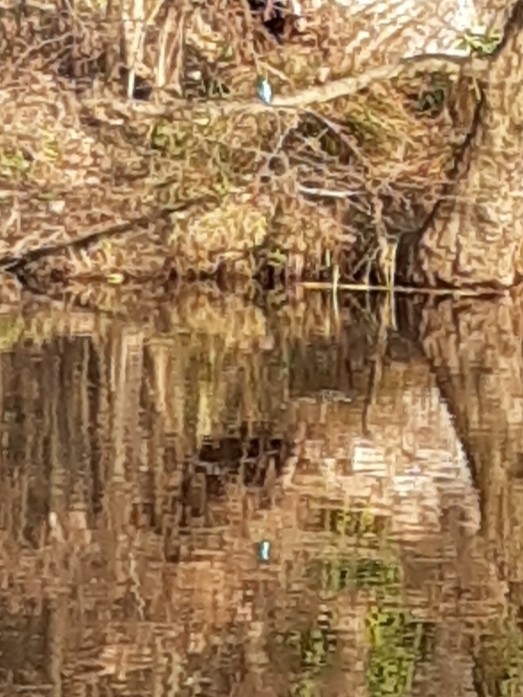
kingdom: Animalia
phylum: Chordata
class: Aves
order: Coraciiformes
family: Alcedinidae
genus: Alcedo
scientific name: Alcedo atthis
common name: Common kingfisher
